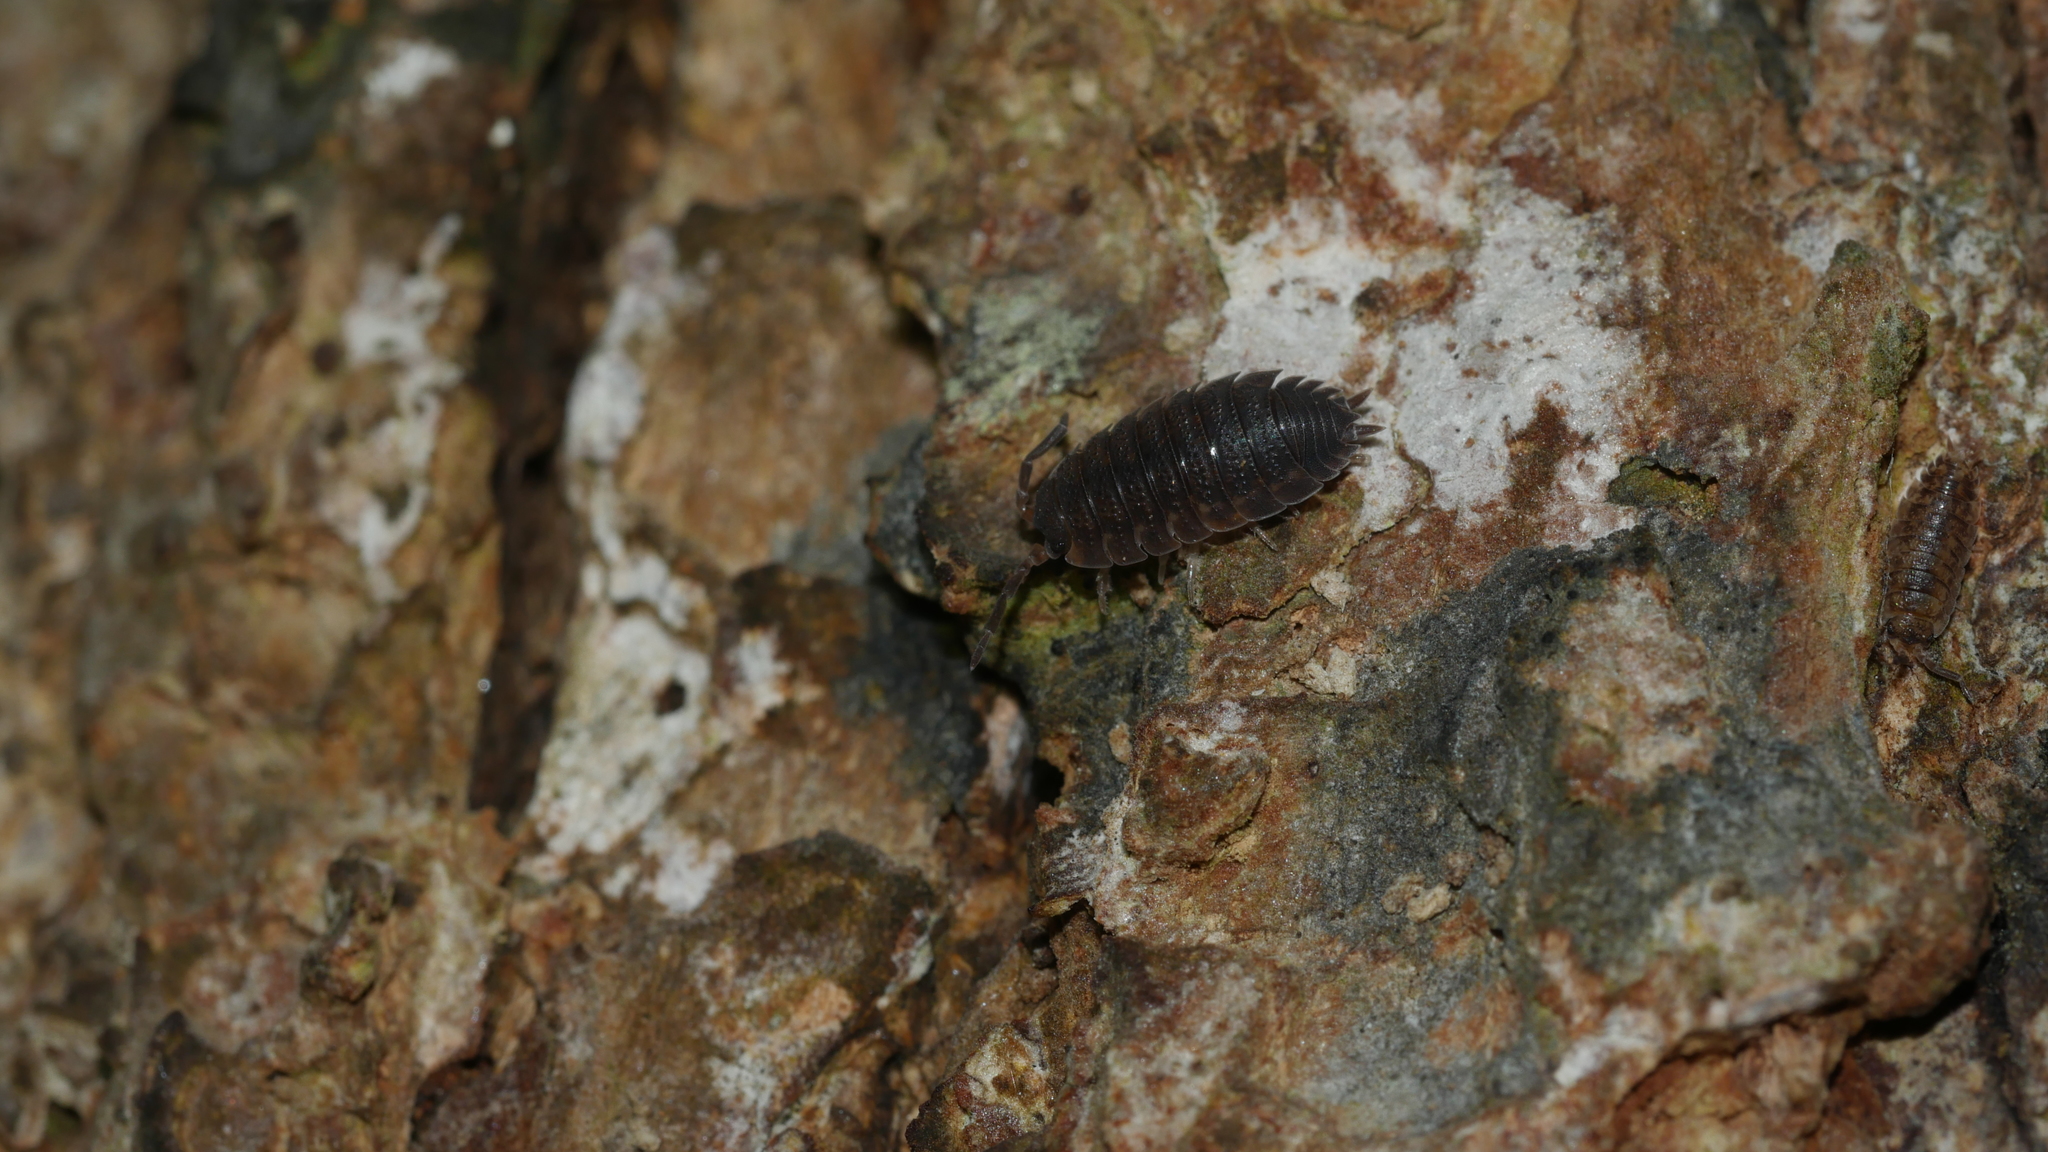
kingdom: Animalia
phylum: Arthropoda
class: Malacostraca
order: Isopoda
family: Porcellionidae
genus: Porcellio
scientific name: Porcellio scaber
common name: Common rough woodlouse
